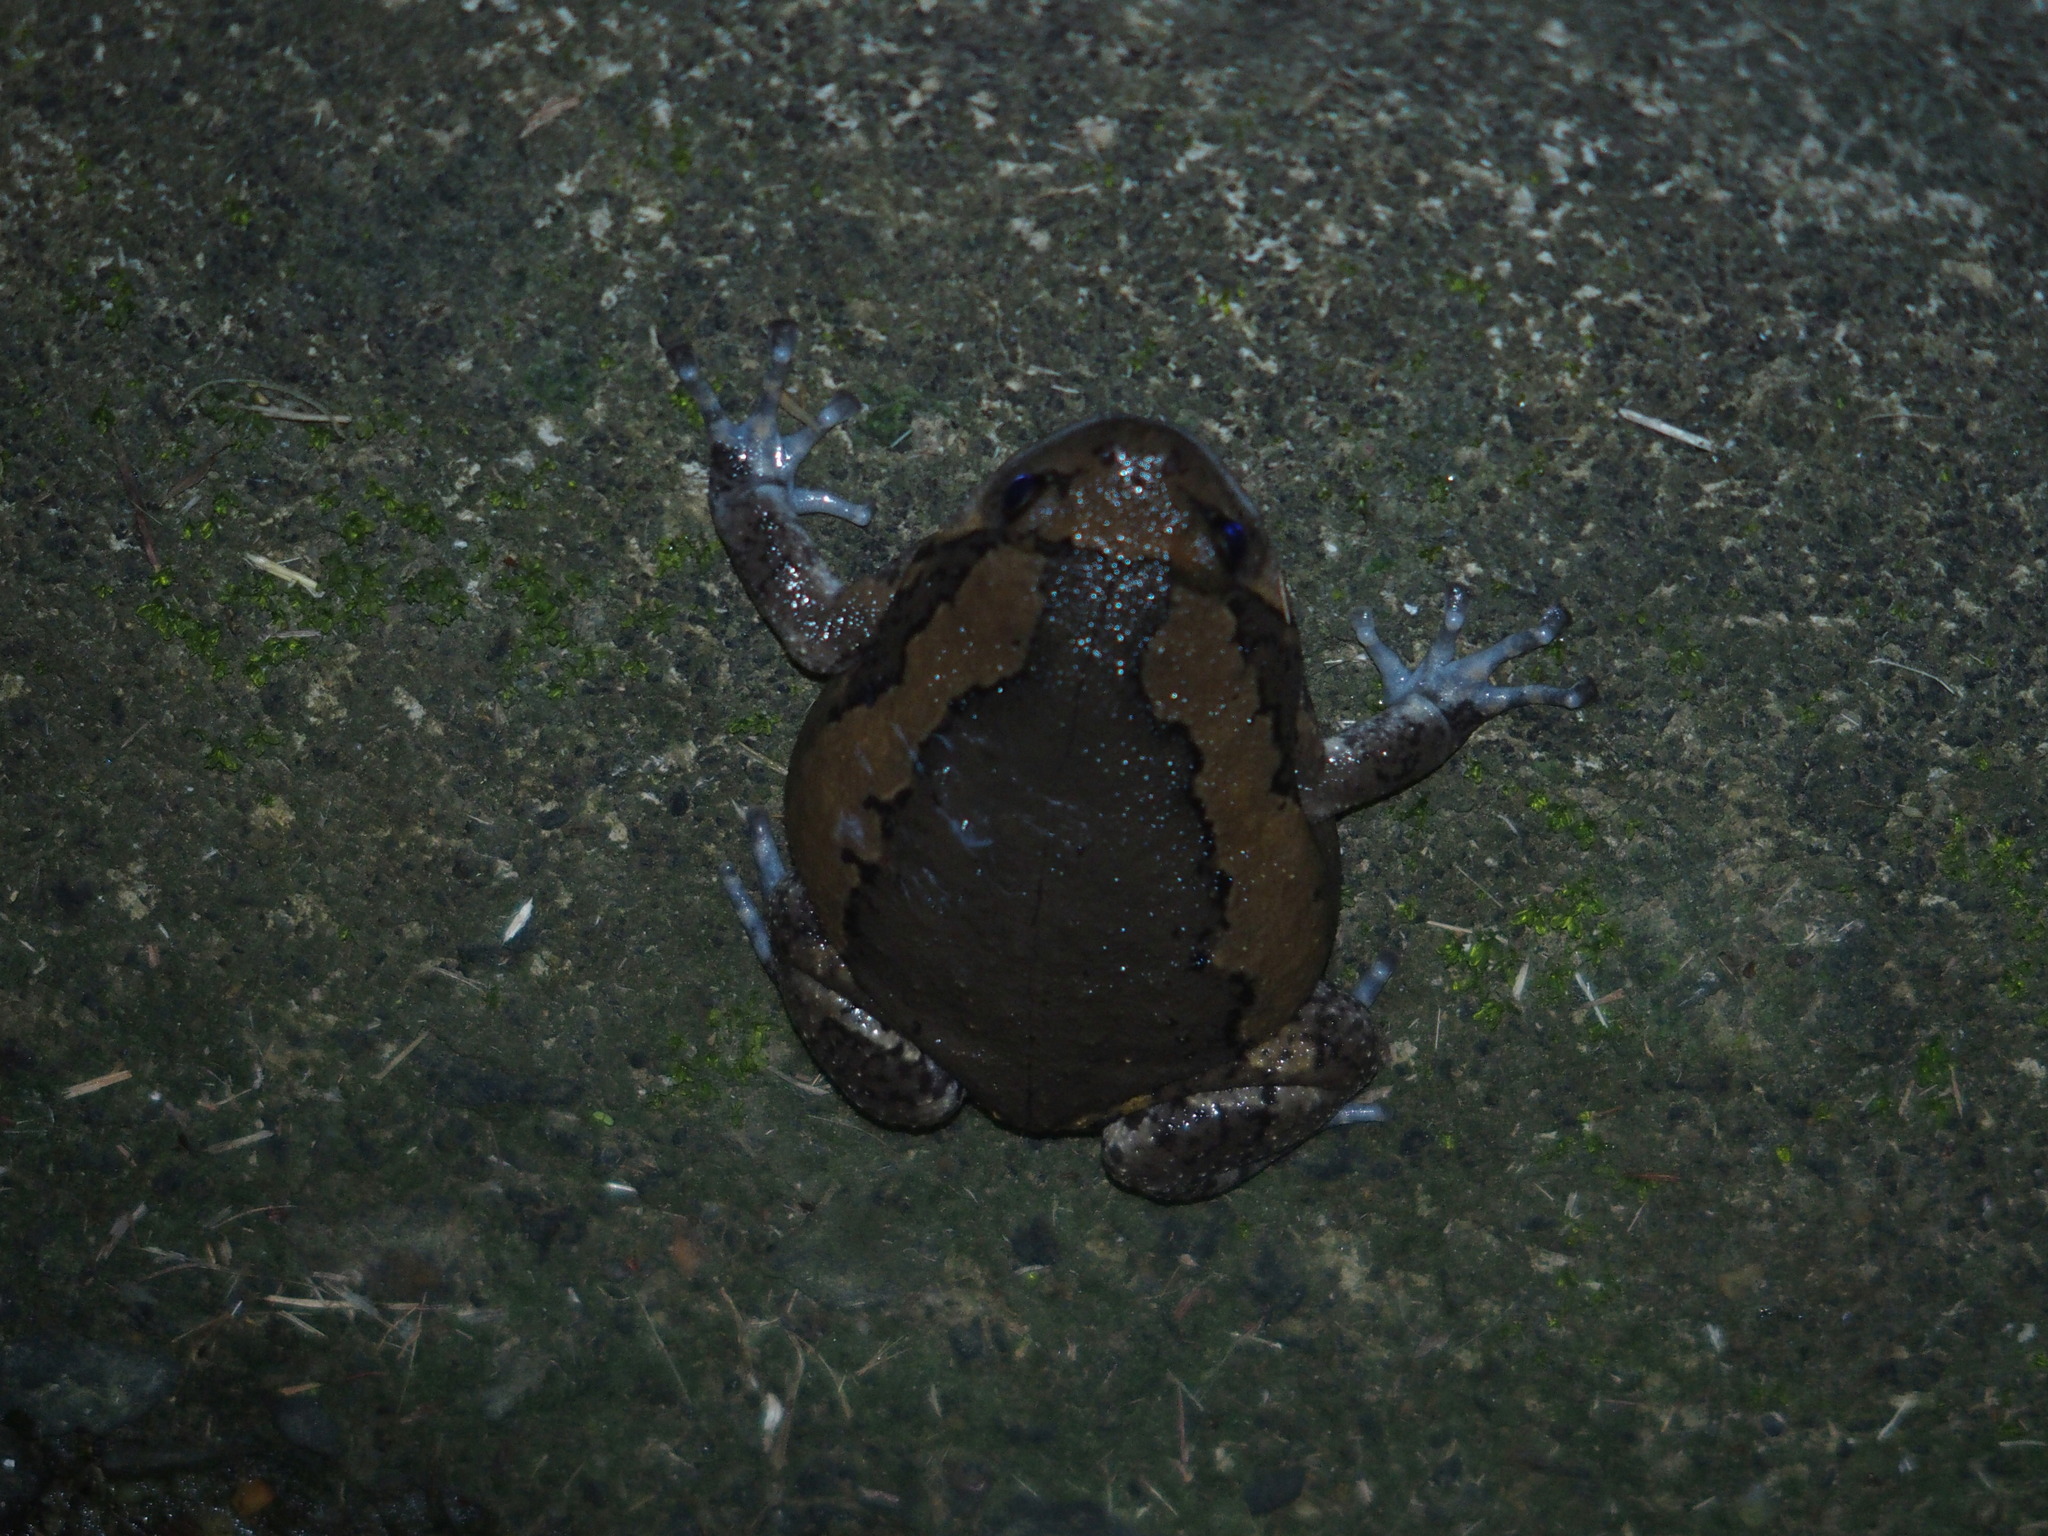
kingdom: Animalia
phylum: Chordata
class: Amphibia
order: Anura
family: Microhylidae
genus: Kaloula
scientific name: Kaloula pulchra
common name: Common,banded bullfrog
